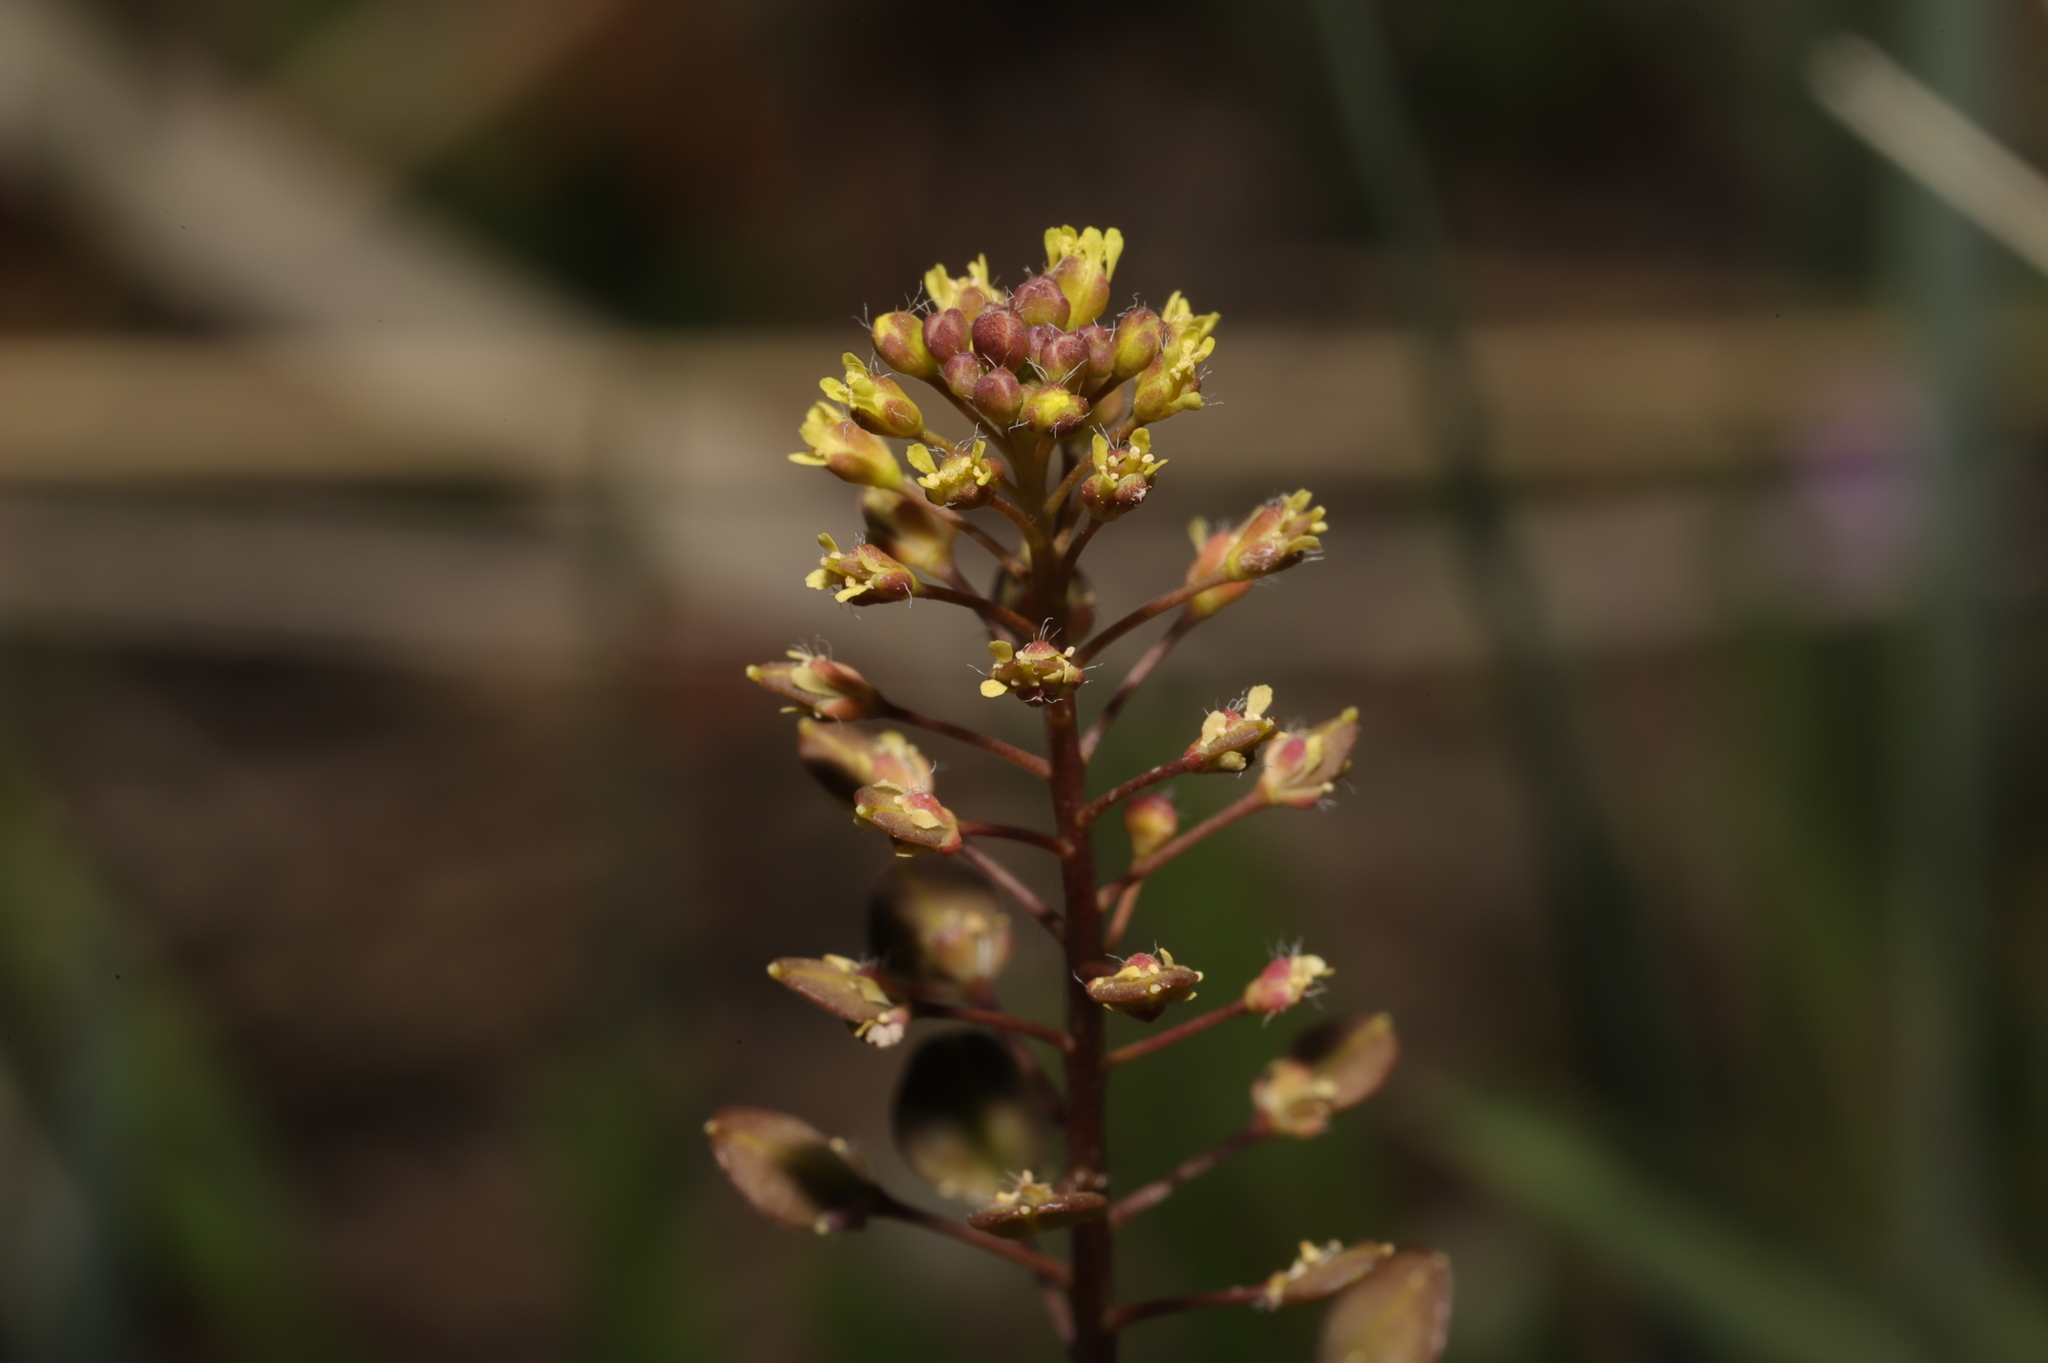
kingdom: Plantae
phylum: Tracheophyta
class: Magnoliopsida
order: Brassicales
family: Brassicaceae
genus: Lepidium
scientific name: Lepidium perfoliatum
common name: Perfoliate pepperwort
